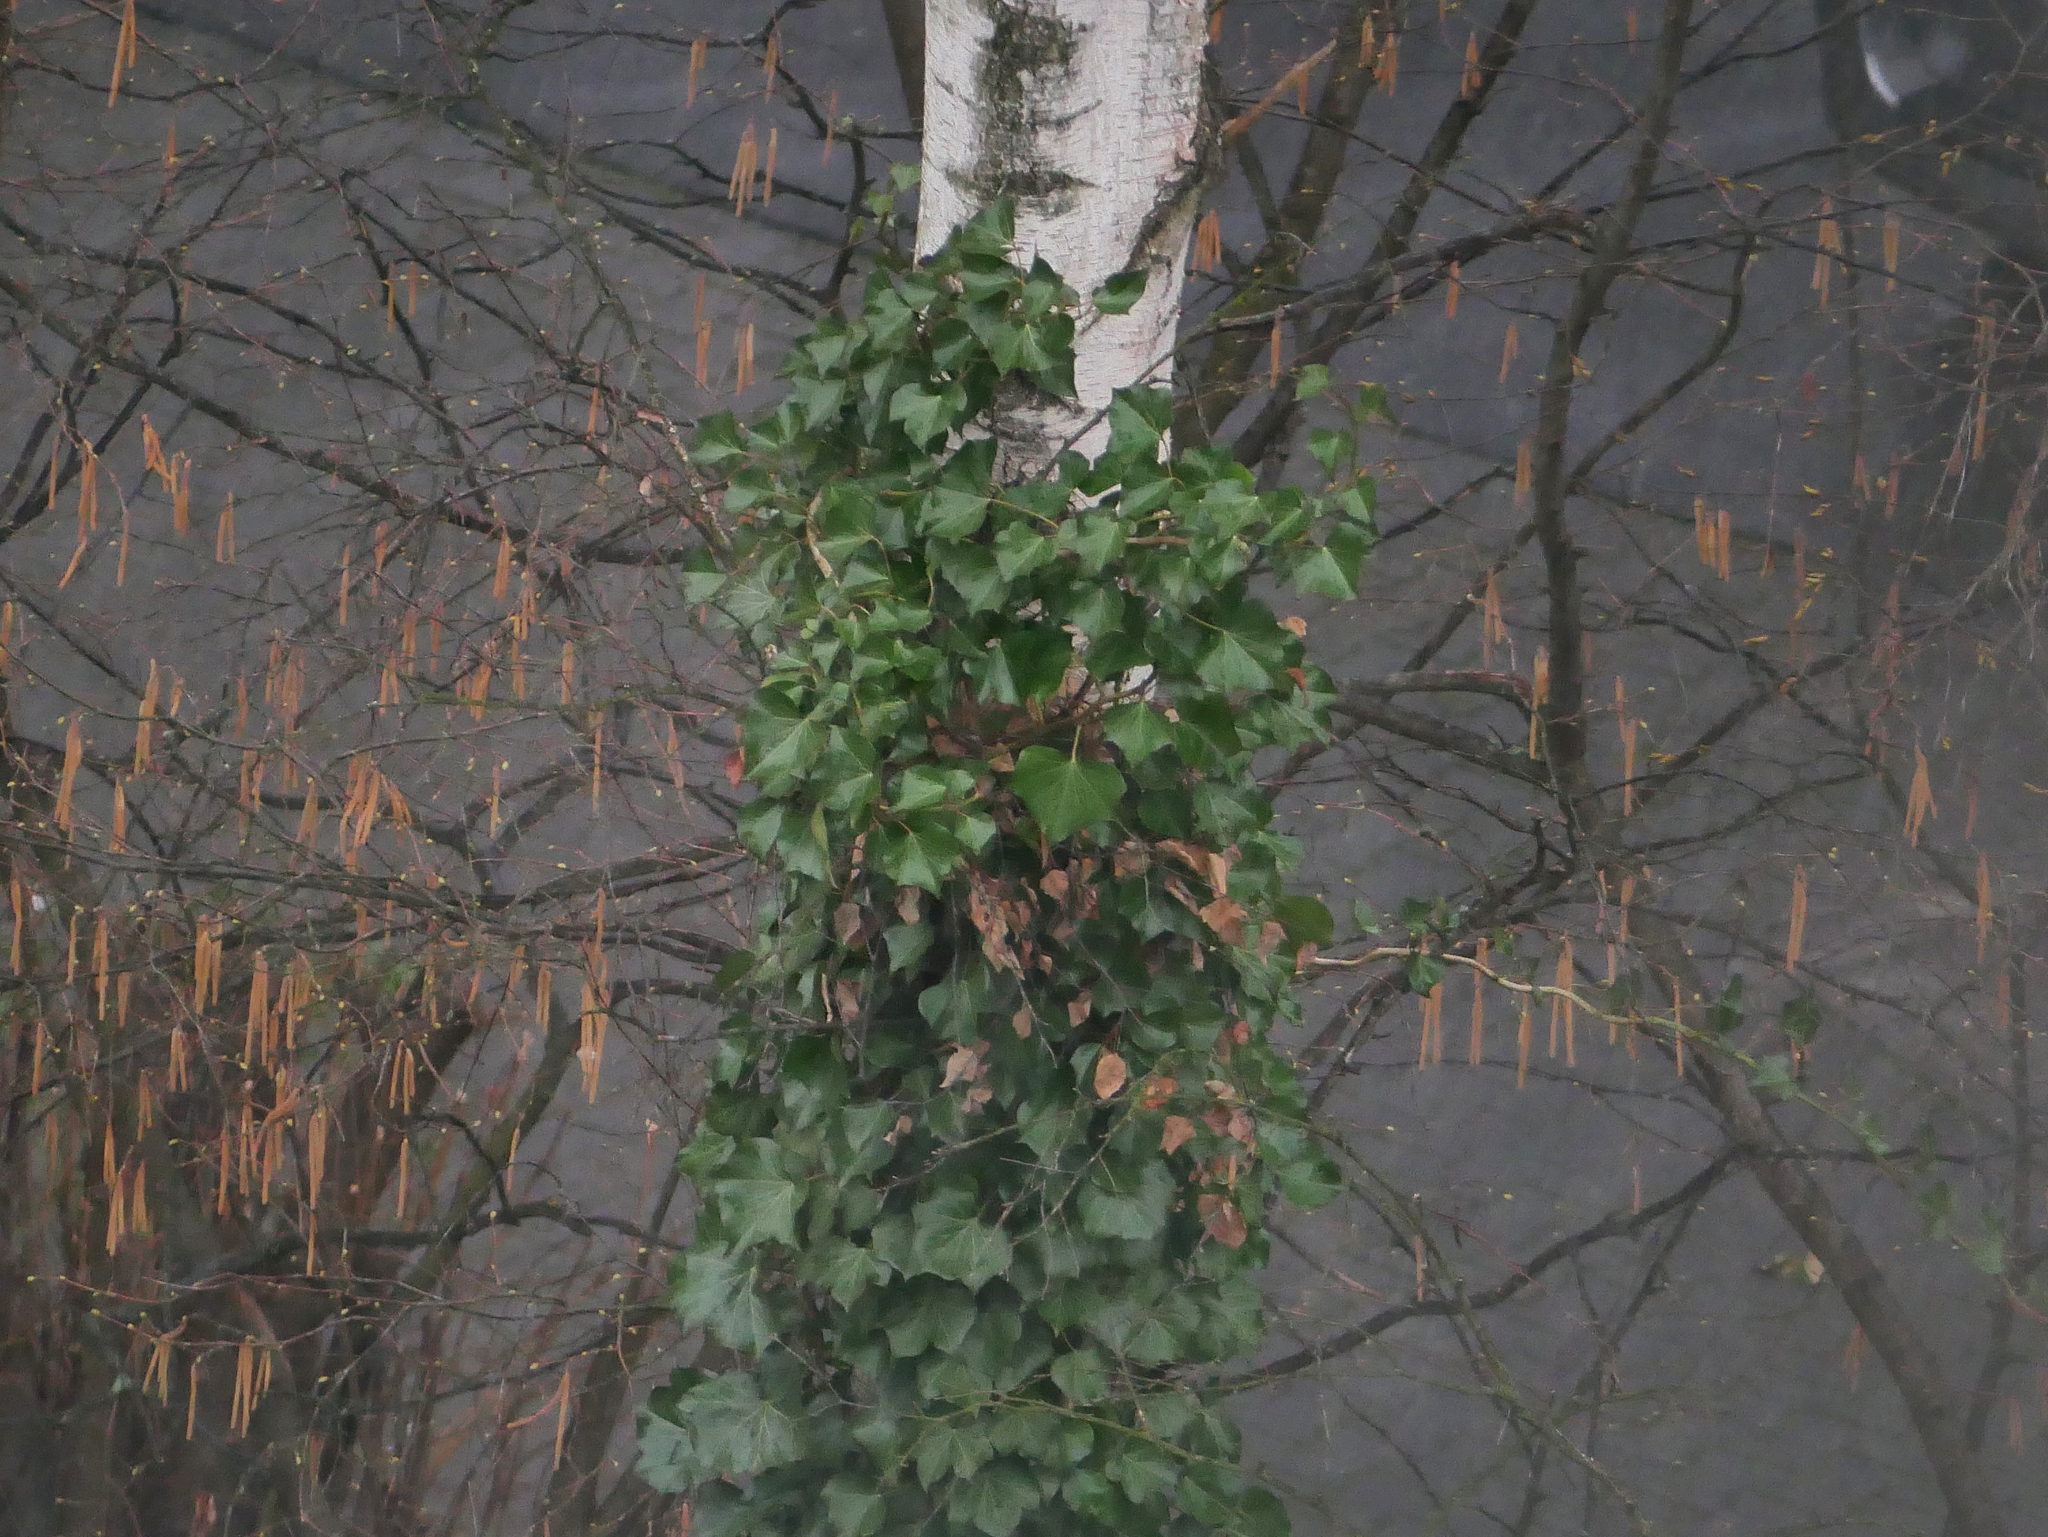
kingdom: Plantae
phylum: Tracheophyta
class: Magnoliopsida
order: Apiales
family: Araliaceae
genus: Hedera
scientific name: Hedera helix
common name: Ivy
